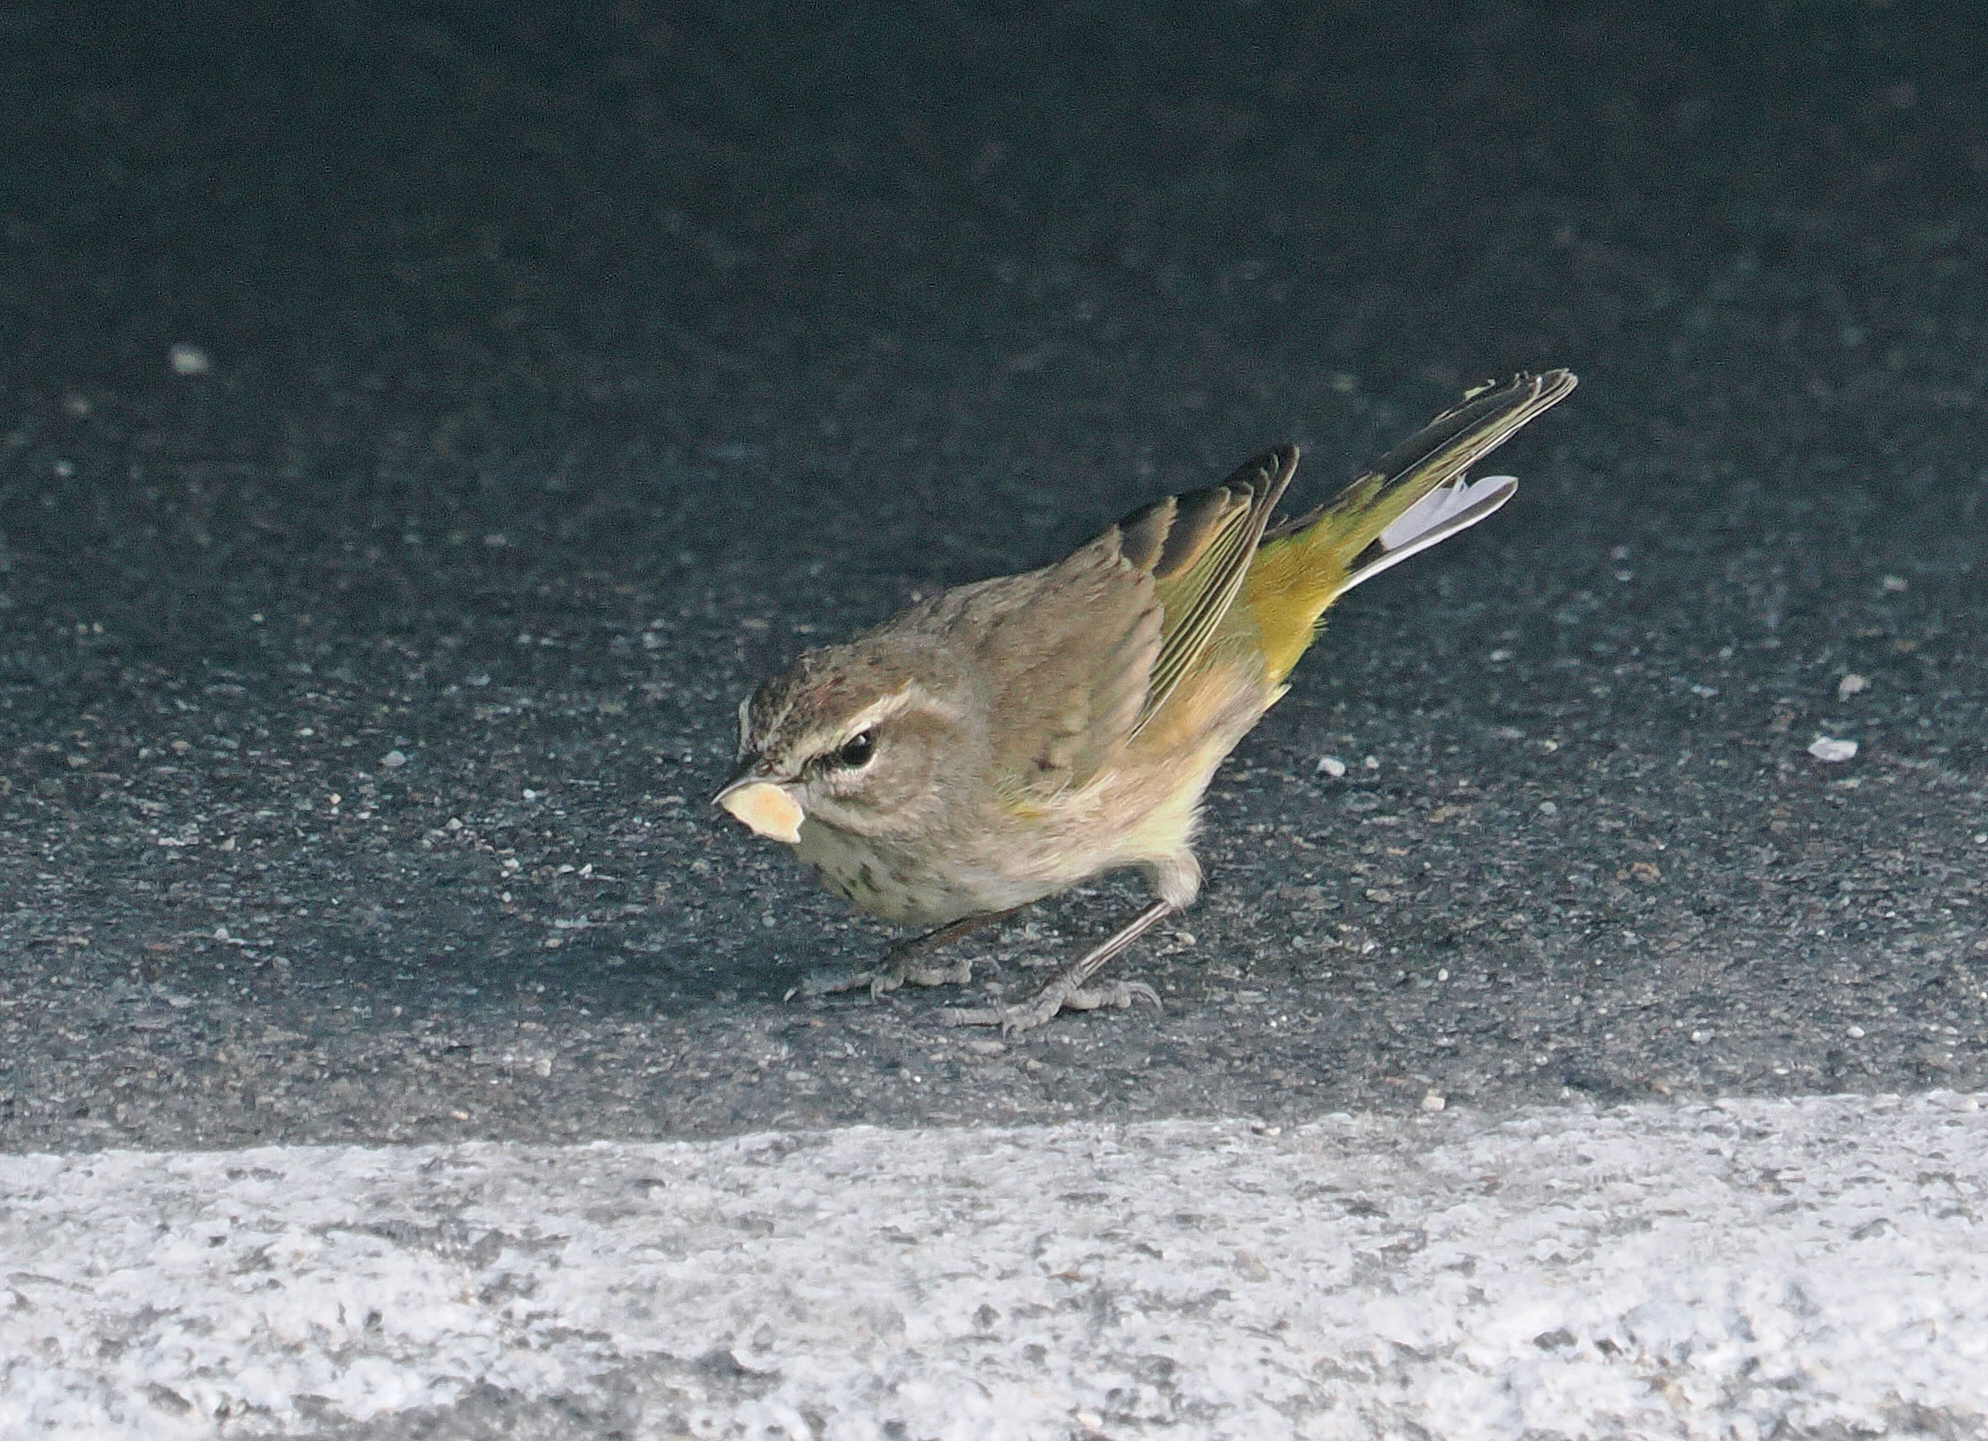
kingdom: Animalia
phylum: Chordata
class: Aves
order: Passeriformes
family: Parulidae
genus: Setophaga
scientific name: Setophaga palmarum
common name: Palm warbler
